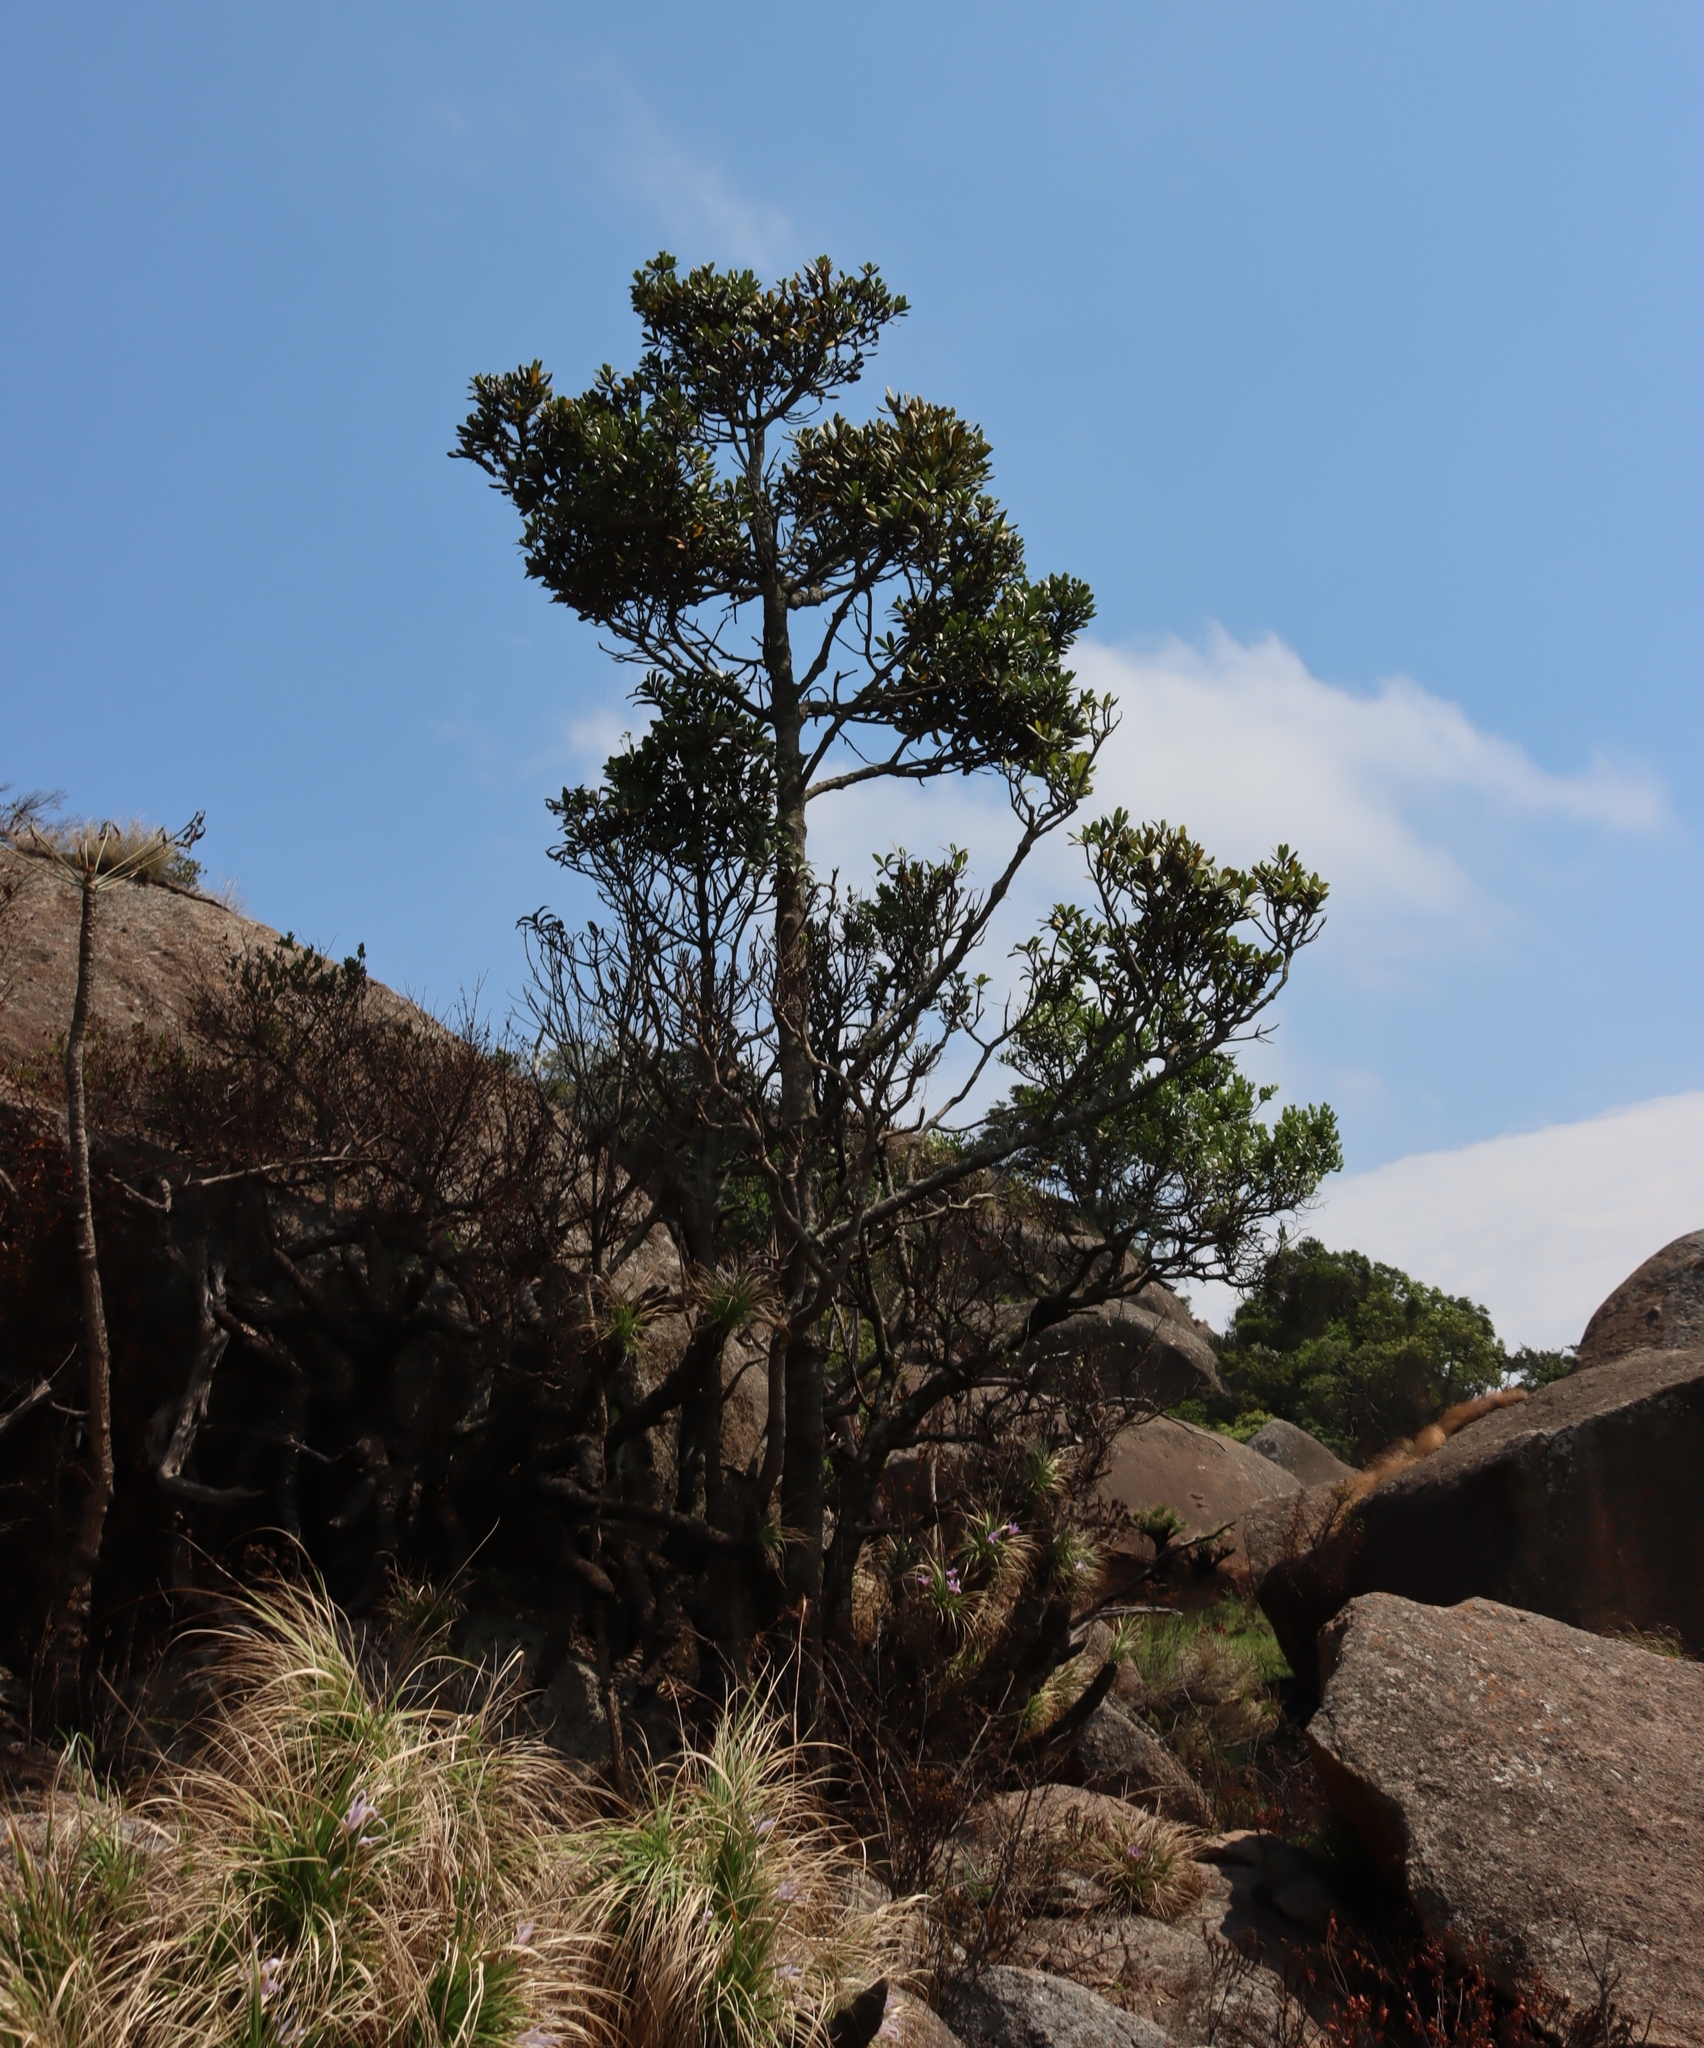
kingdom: Plantae
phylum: Tracheophyta
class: Magnoliopsida
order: Ericales
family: Primulaceae
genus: Myrsine
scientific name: Myrsine melanophloeos
